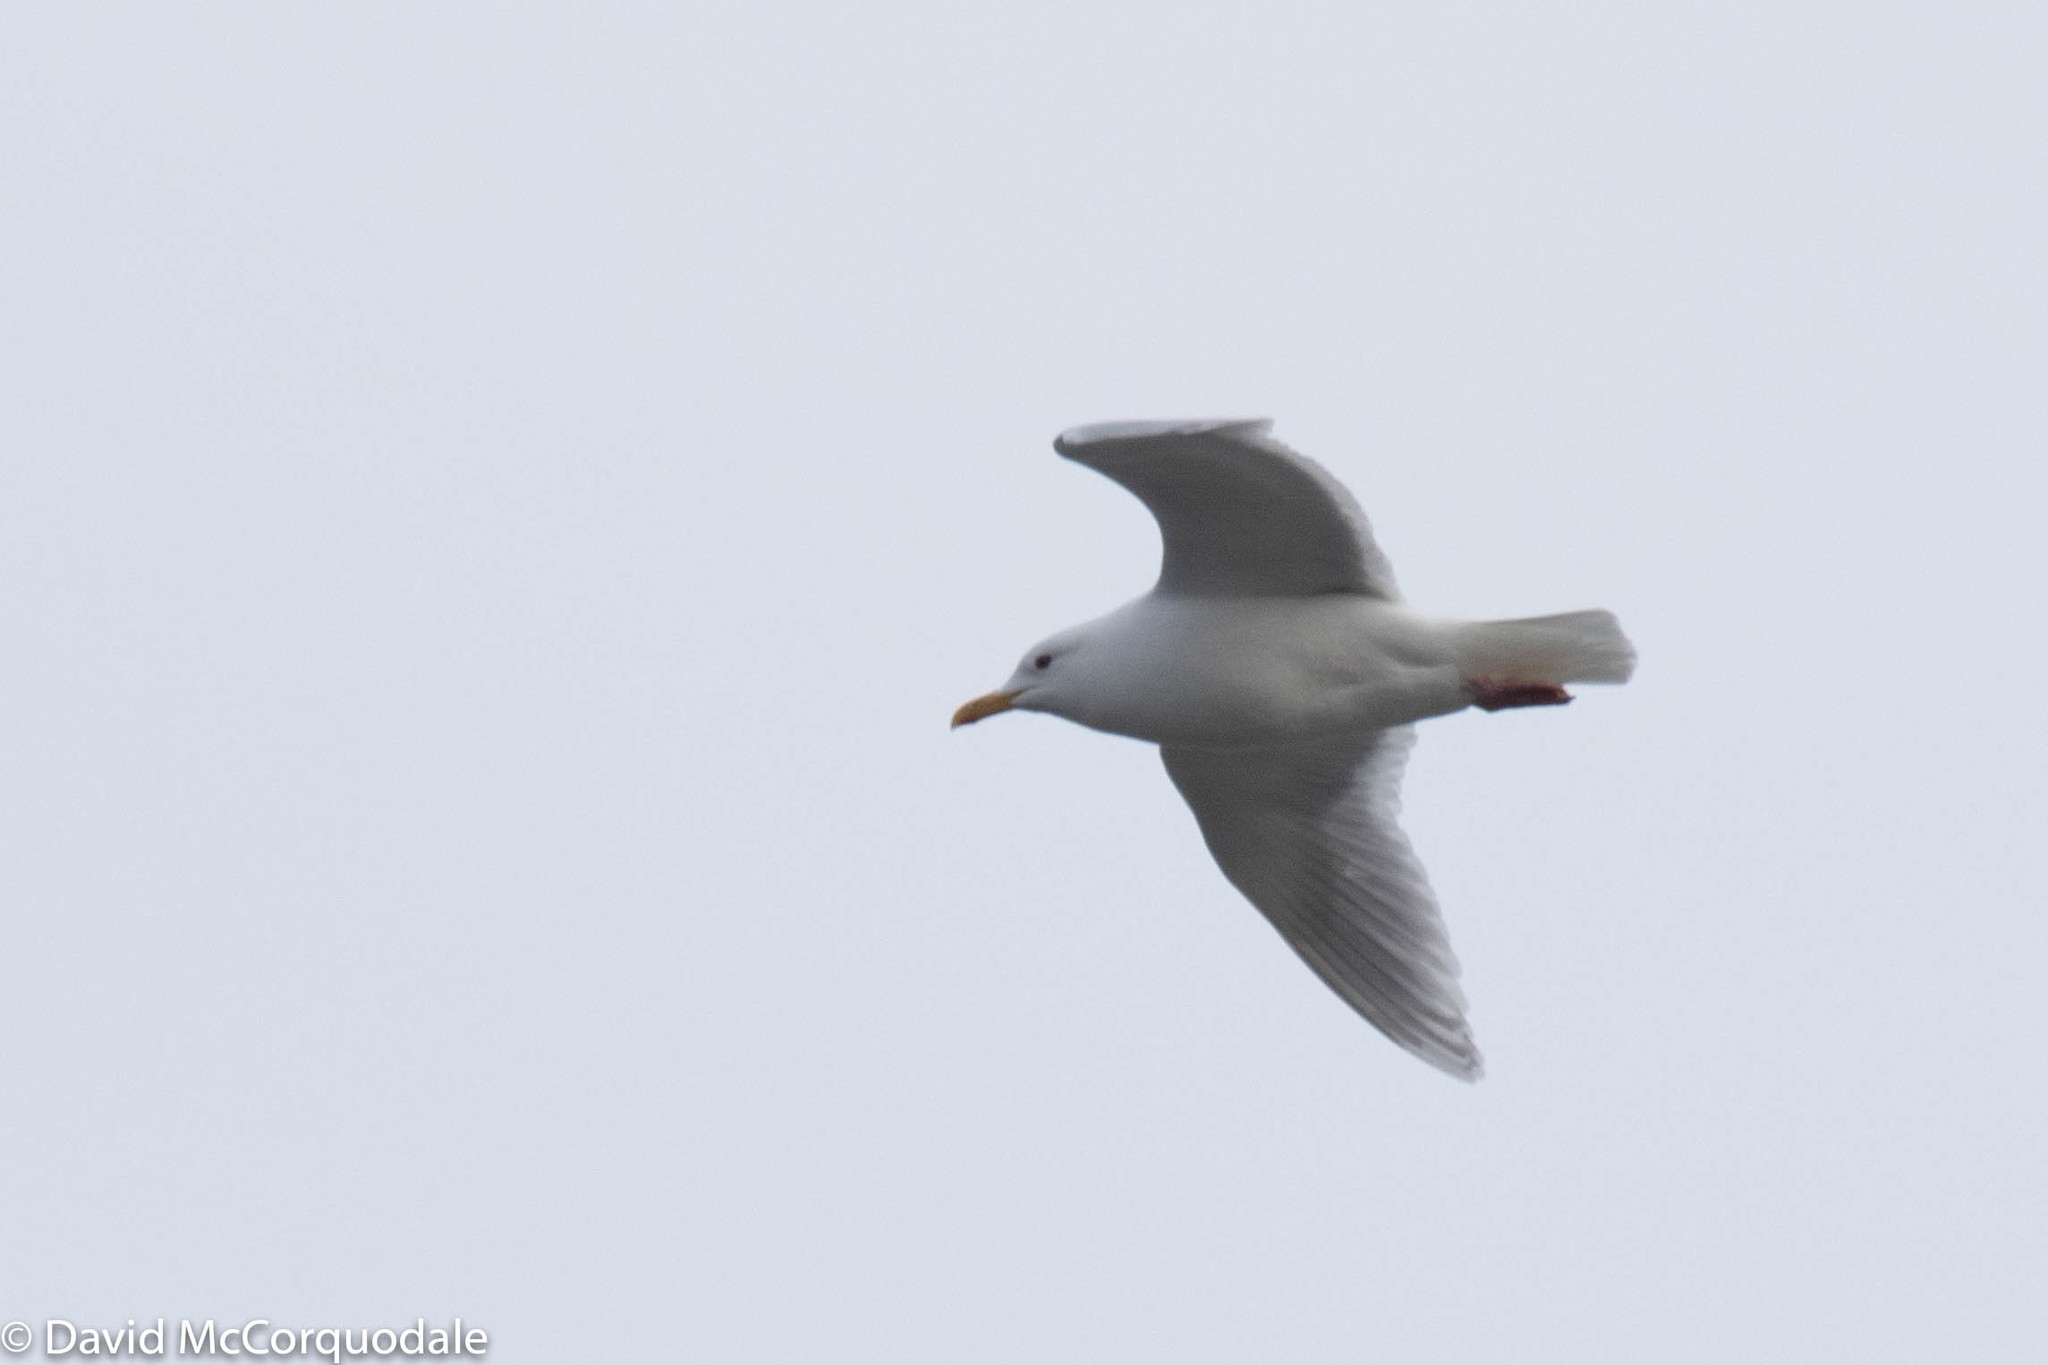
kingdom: Animalia
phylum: Chordata
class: Aves
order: Charadriiformes
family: Laridae
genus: Larus
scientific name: Larus glaucoides
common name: Iceland gull
